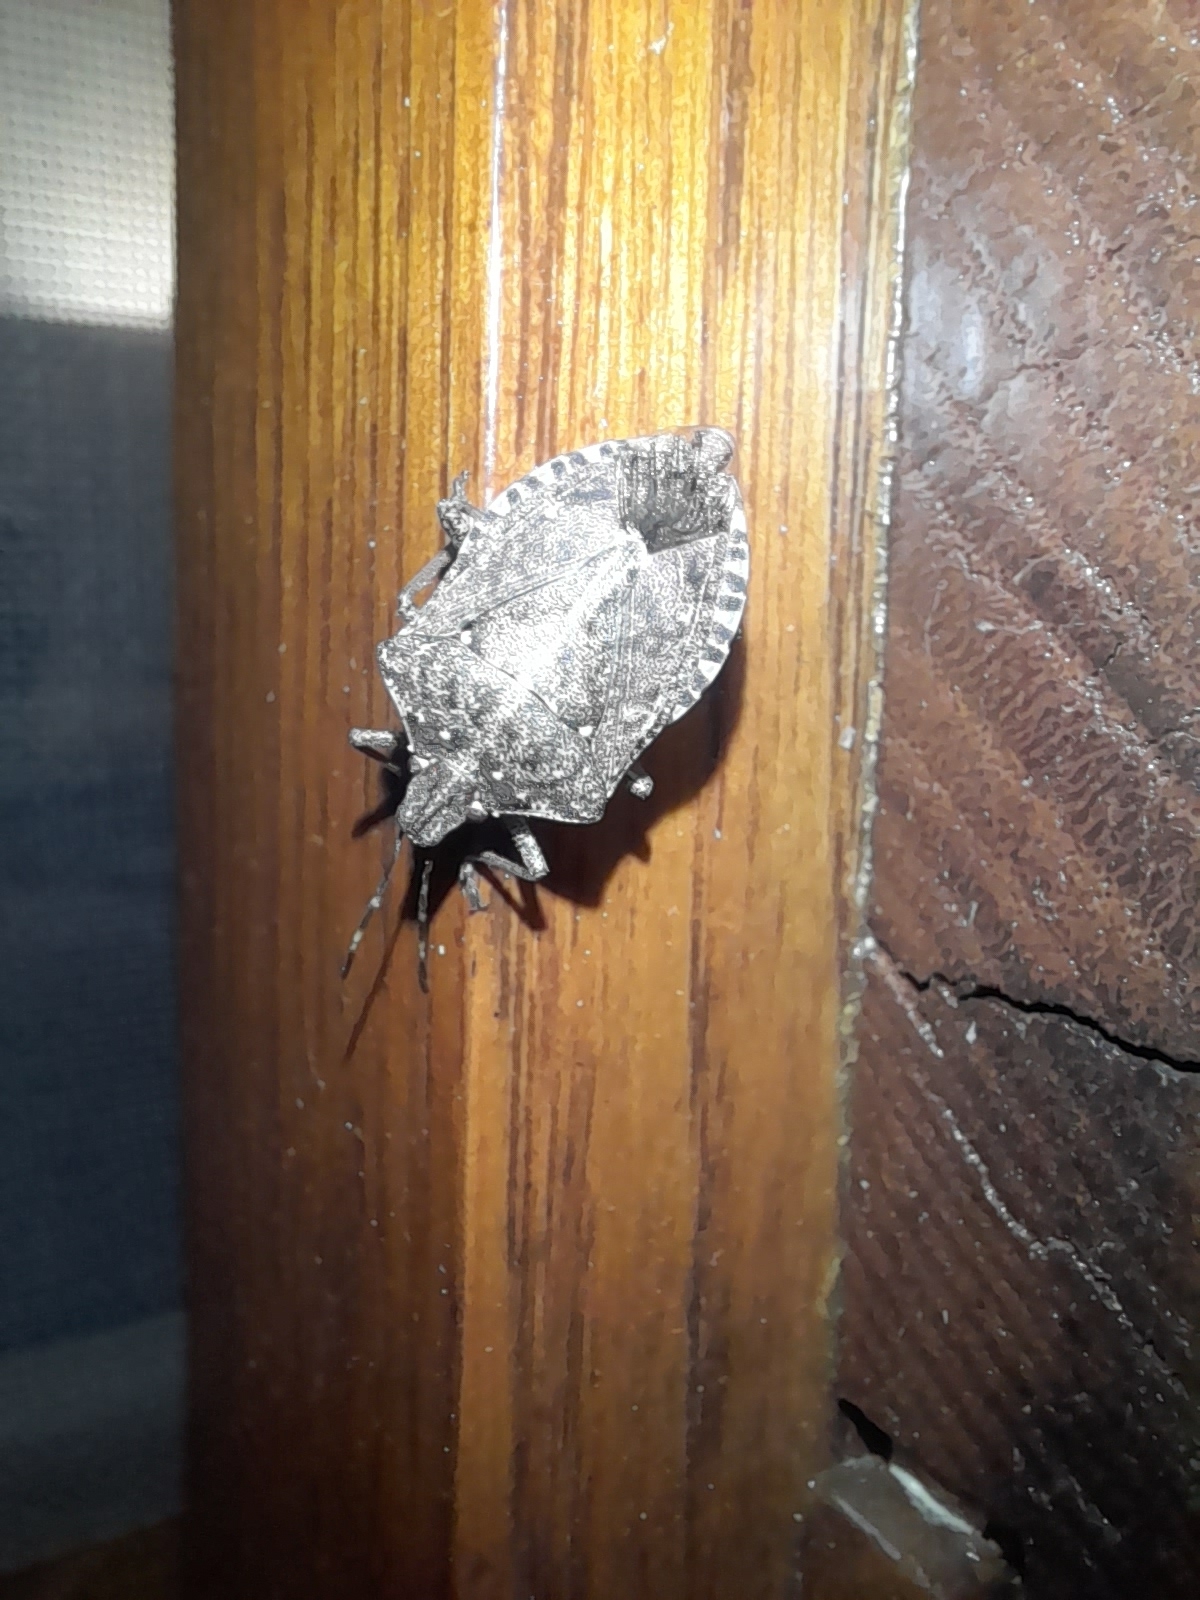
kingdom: Animalia
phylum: Arthropoda
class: Insecta
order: Hemiptera
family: Pentatomidae
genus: Halyomorpha
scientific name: Halyomorpha halys
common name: Brown marmorated stink bug
